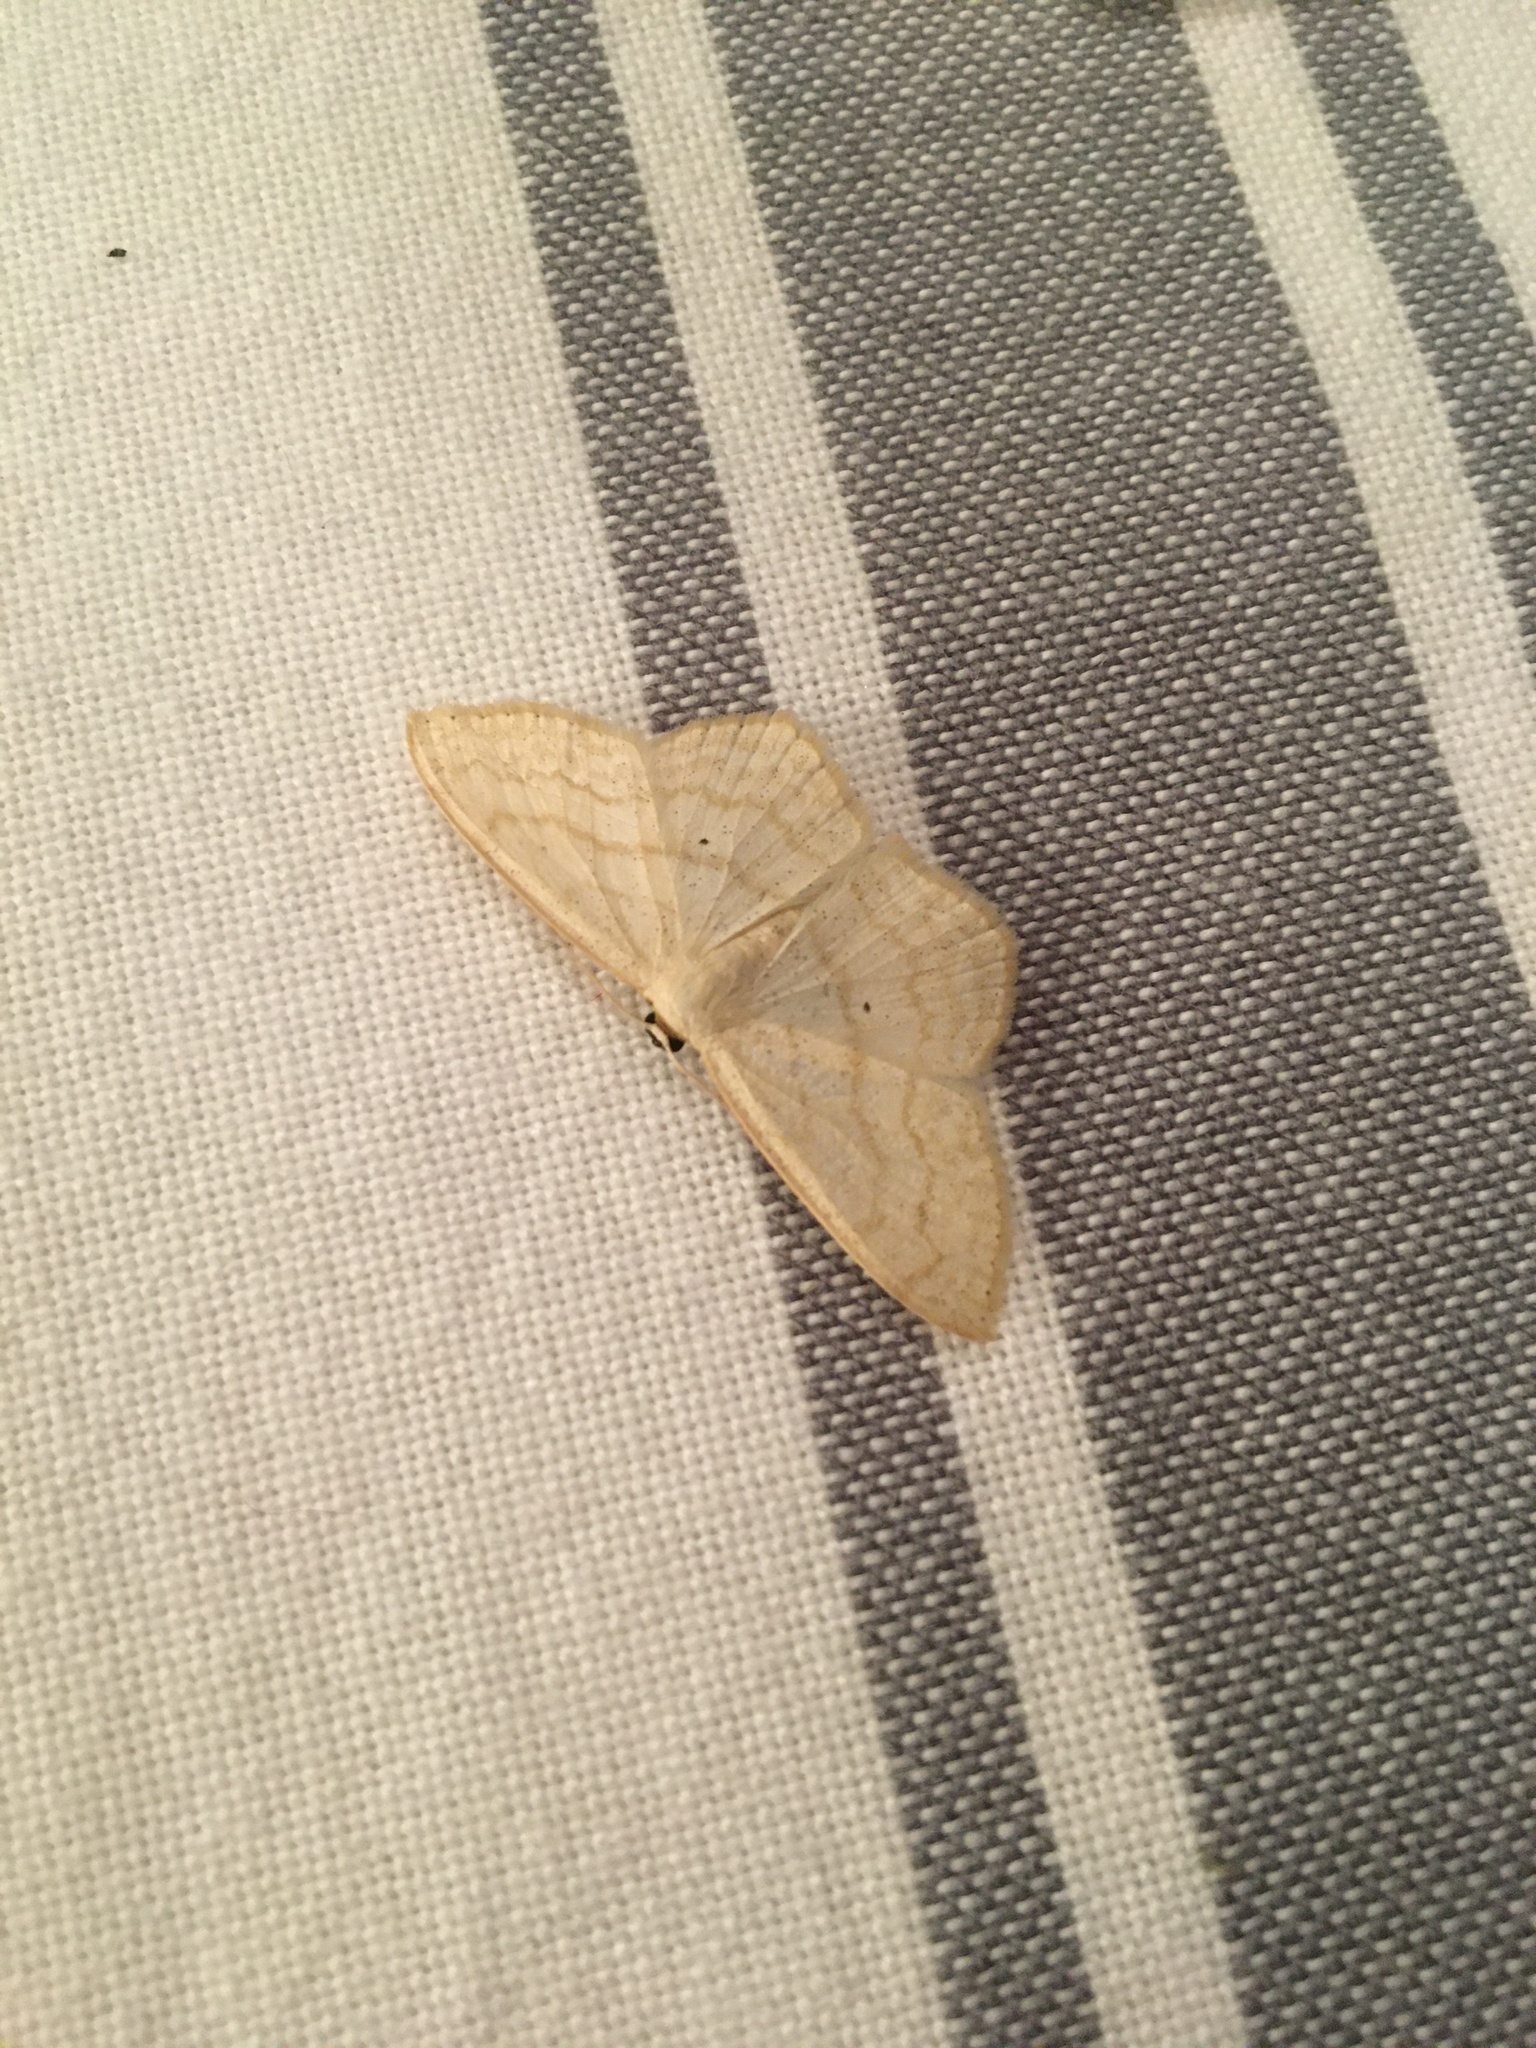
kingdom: Animalia
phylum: Arthropoda
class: Insecta
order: Lepidoptera
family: Geometridae
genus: Scopula
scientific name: Scopula limboundata
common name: Large lace border
